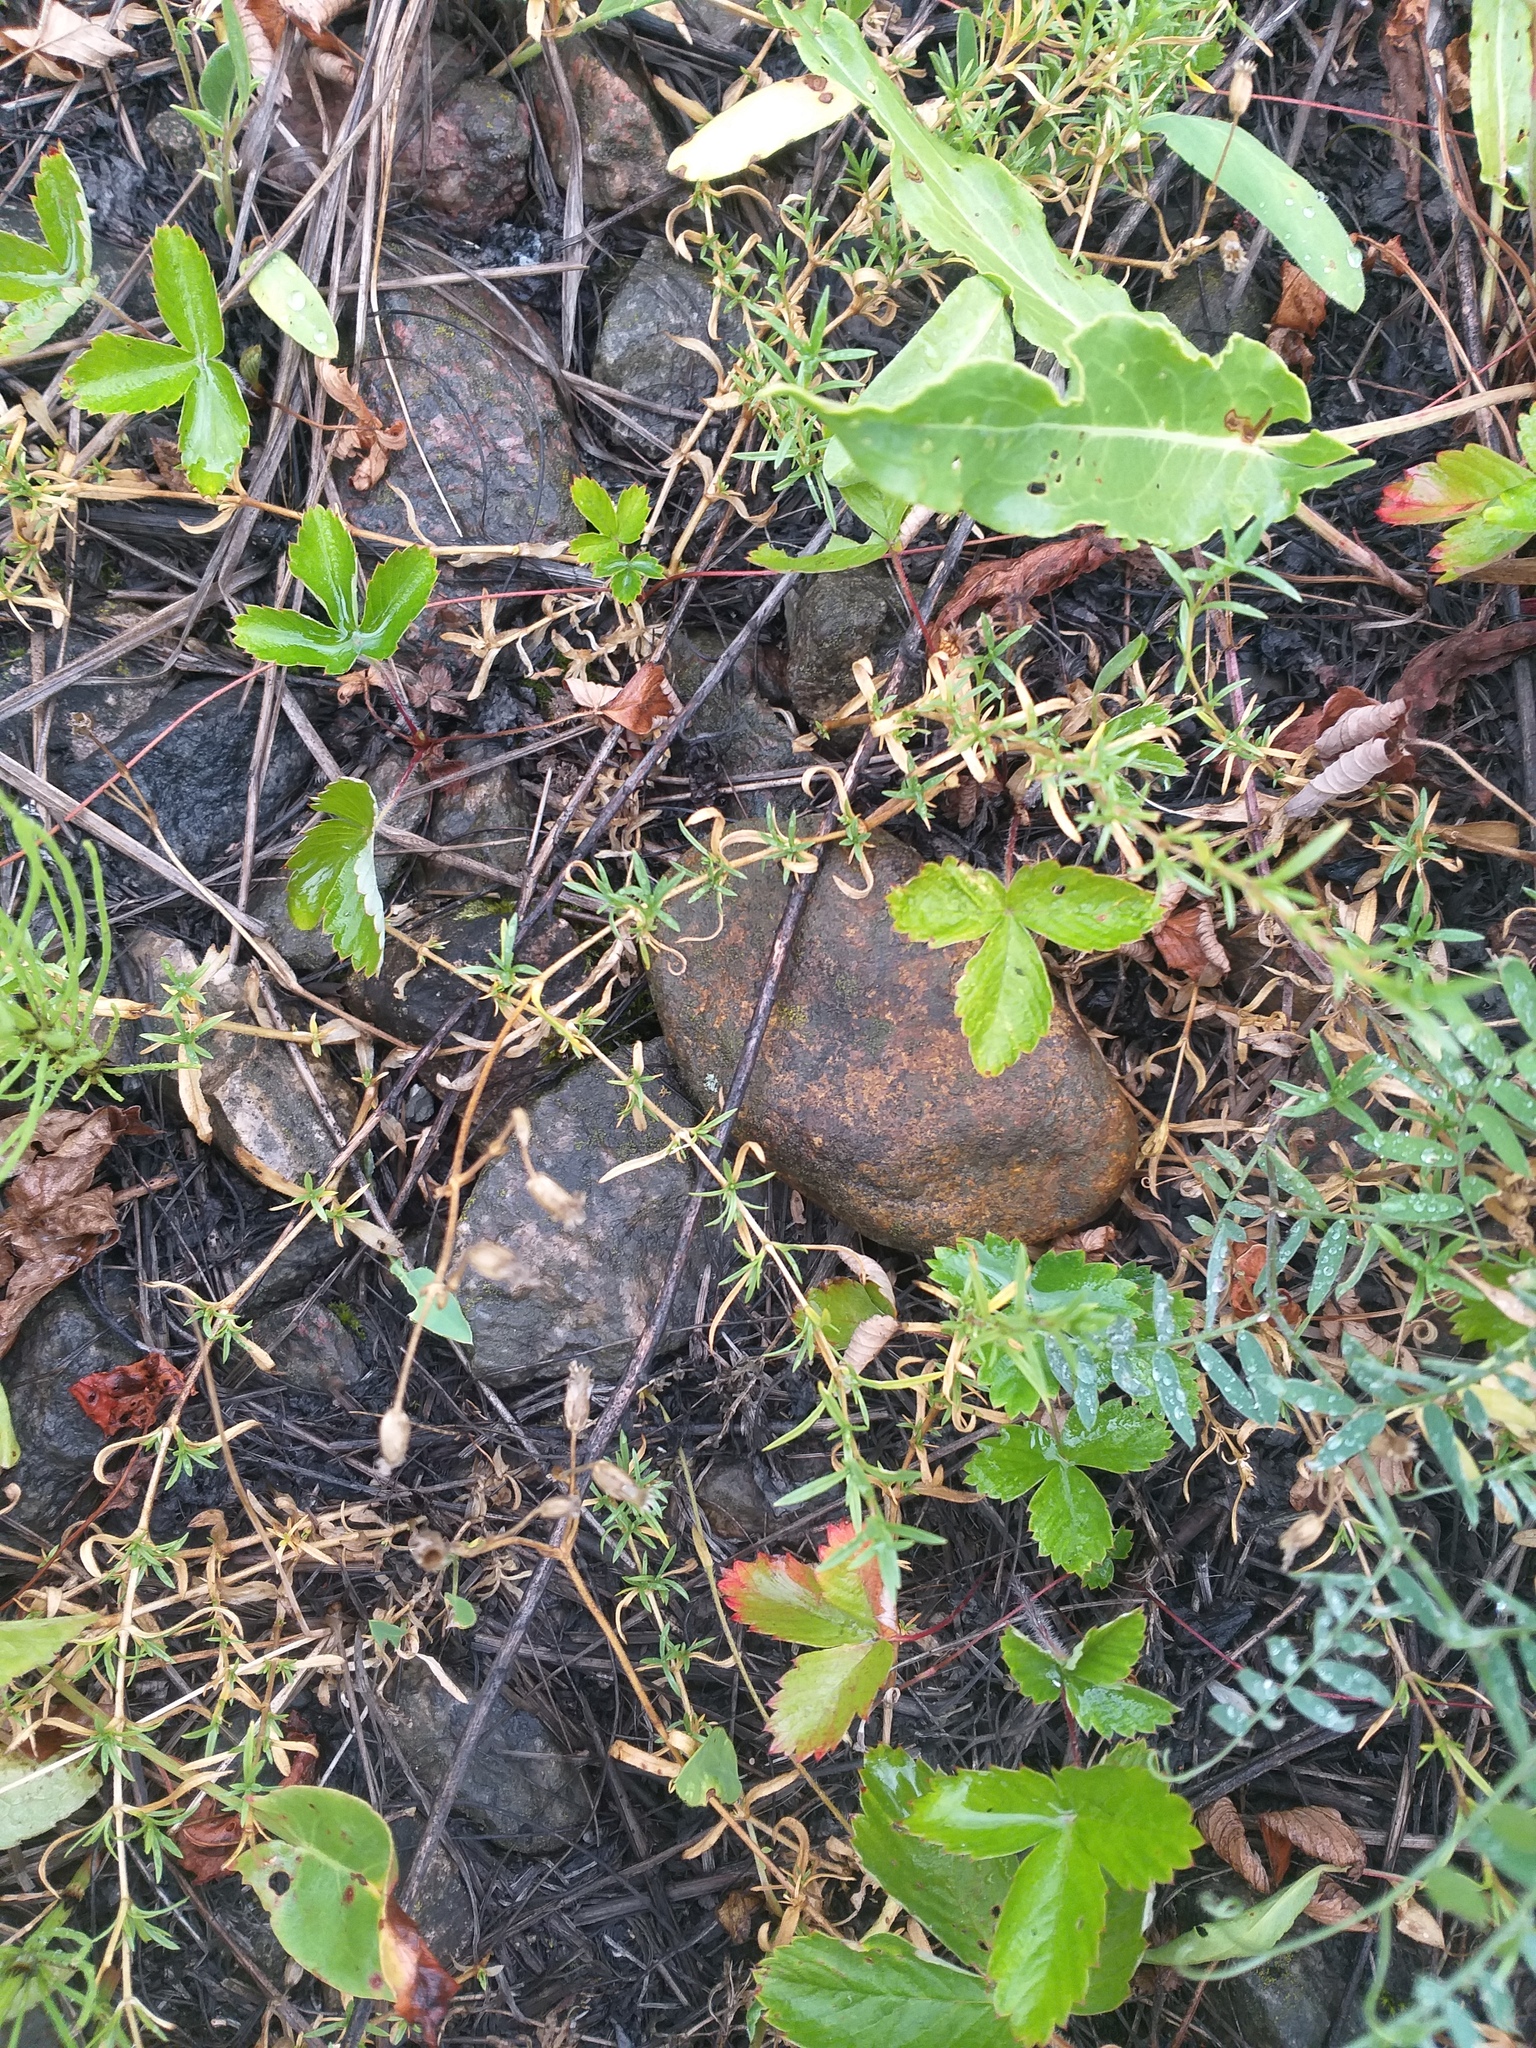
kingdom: Plantae
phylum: Tracheophyta
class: Magnoliopsida
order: Caryophyllales
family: Caryophyllaceae
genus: Cerastium
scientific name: Cerastium arvense
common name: Field mouse-ear
